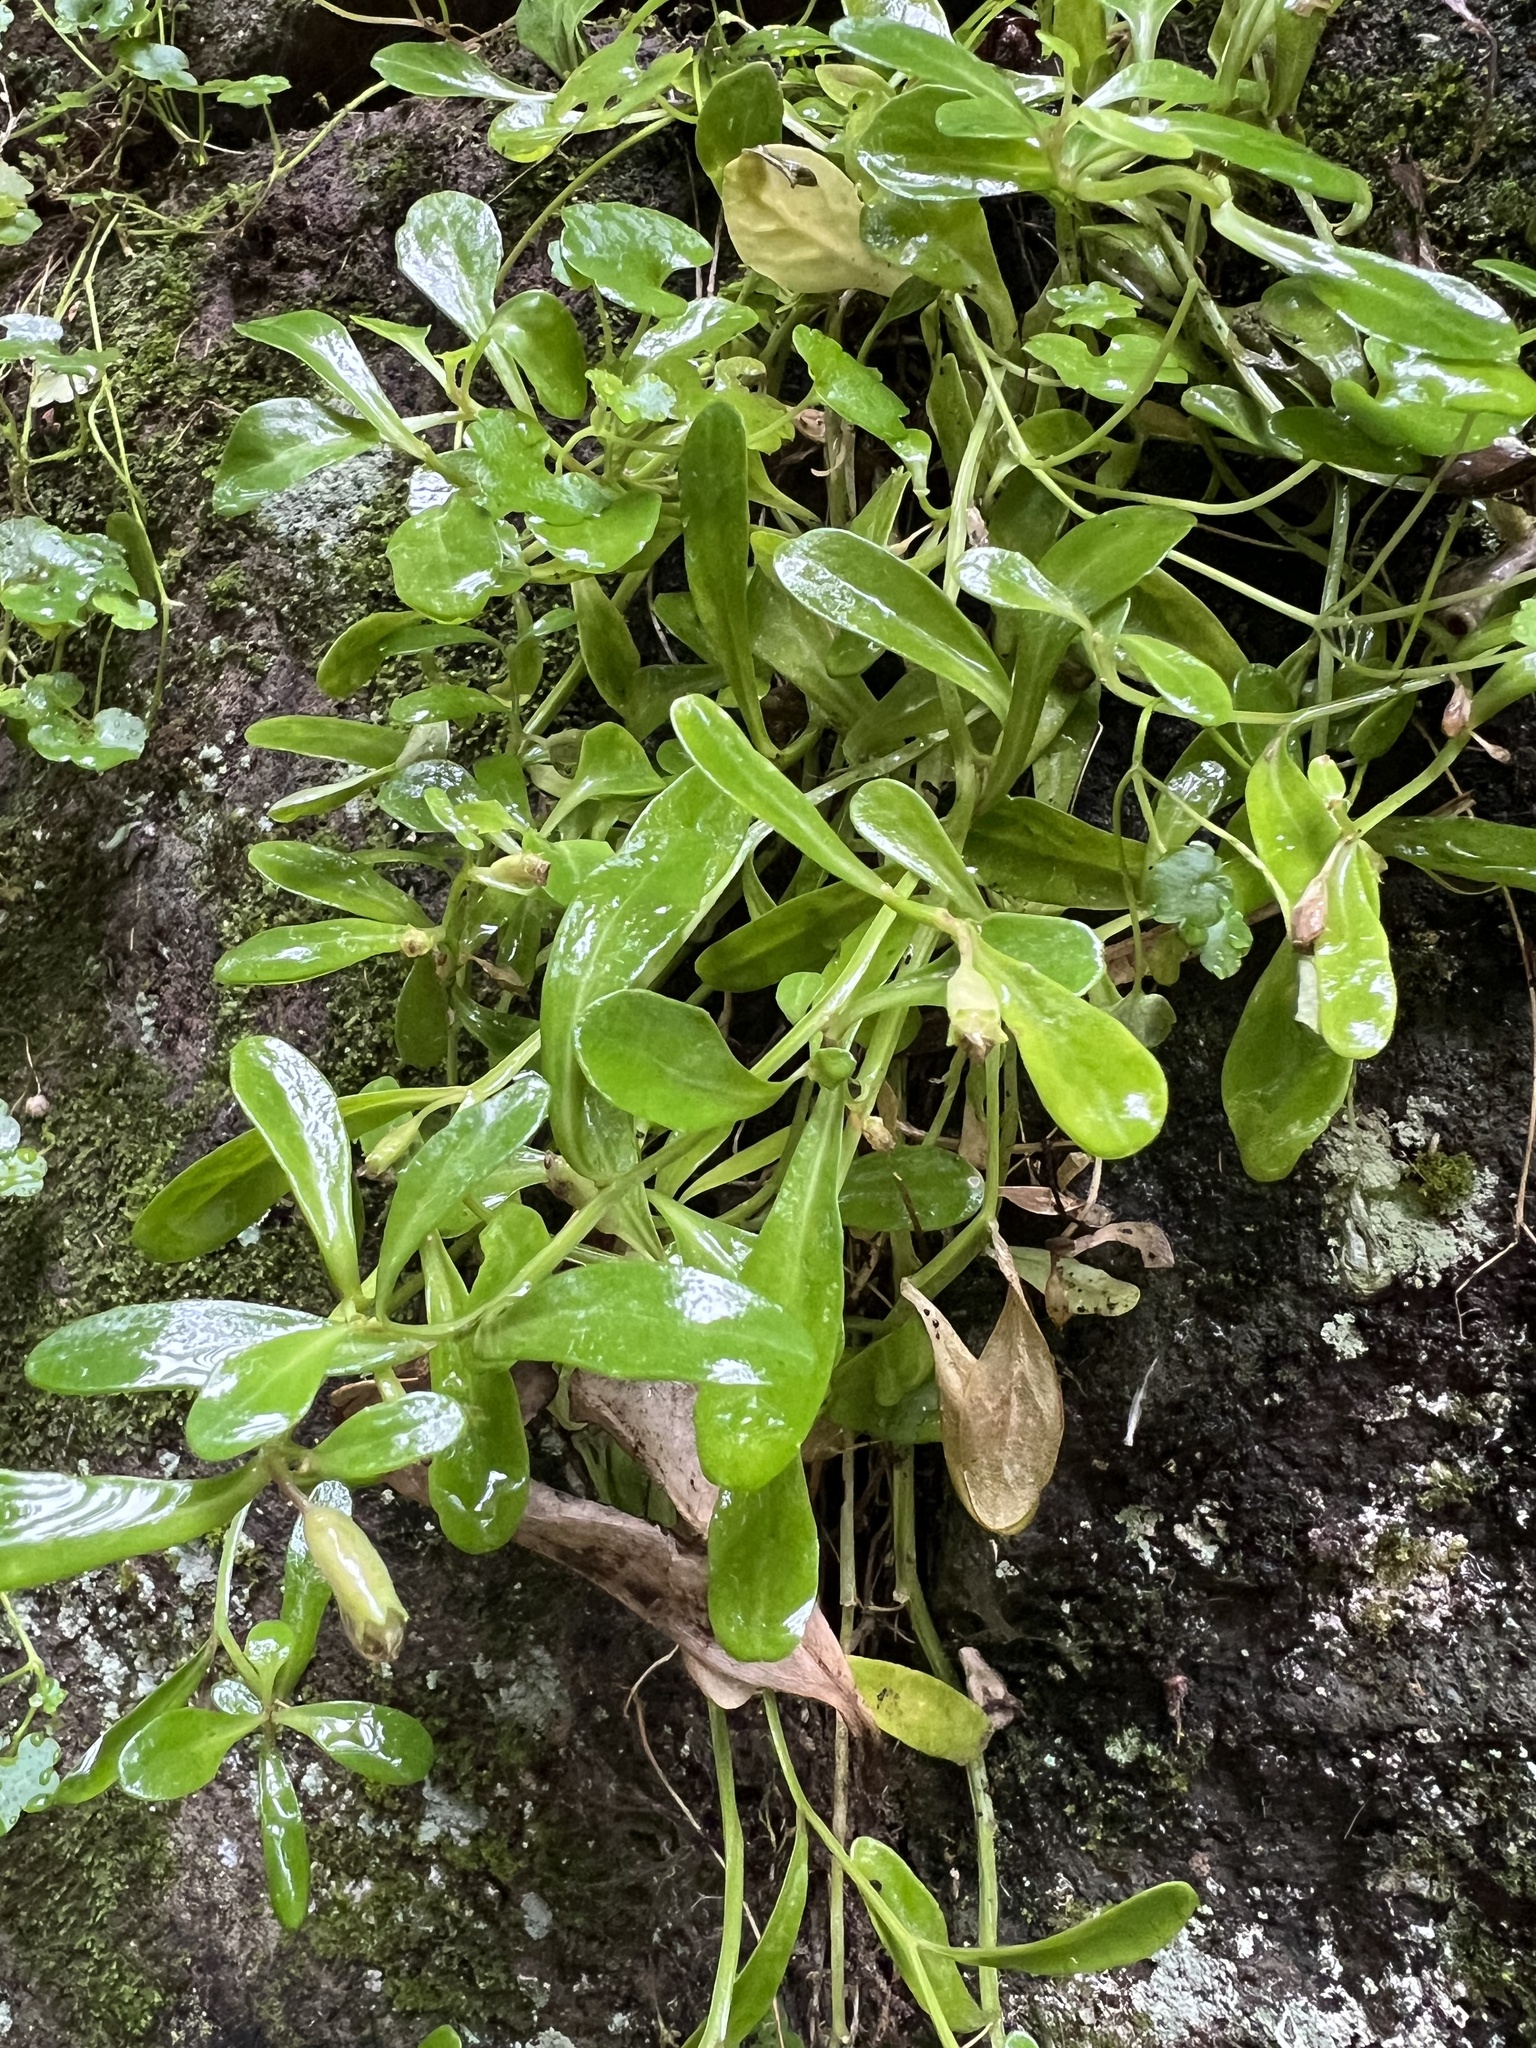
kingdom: Plantae
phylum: Tracheophyta
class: Magnoliopsida
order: Asterales
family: Campanulaceae
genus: Lobelia
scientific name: Lobelia anceps
